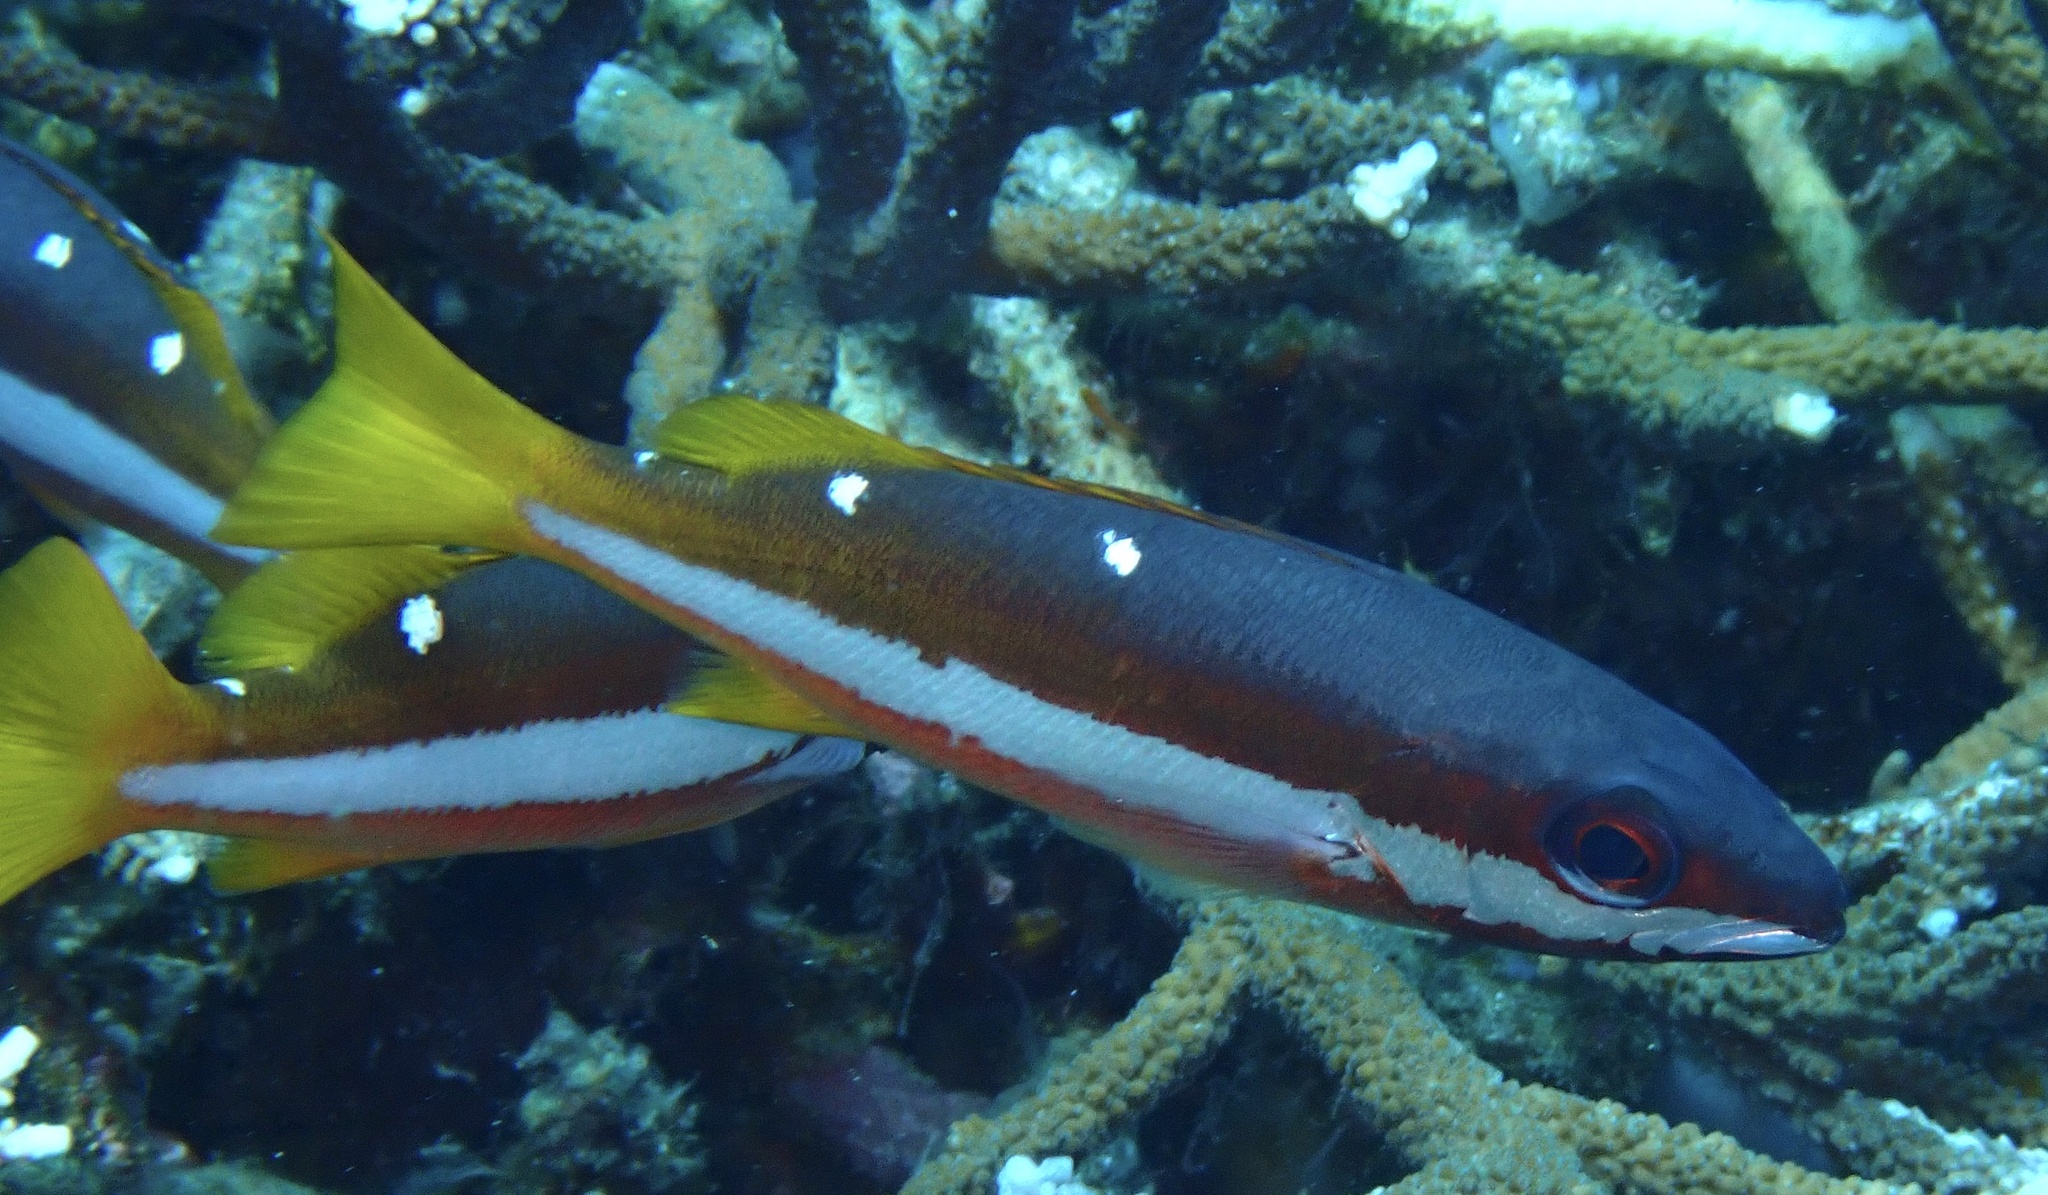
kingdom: Animalia
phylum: Chordata
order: Perciformes
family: Lutjanidae
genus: Lutjanus
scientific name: Lutjanus biguttatus
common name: Two-spot snapper
